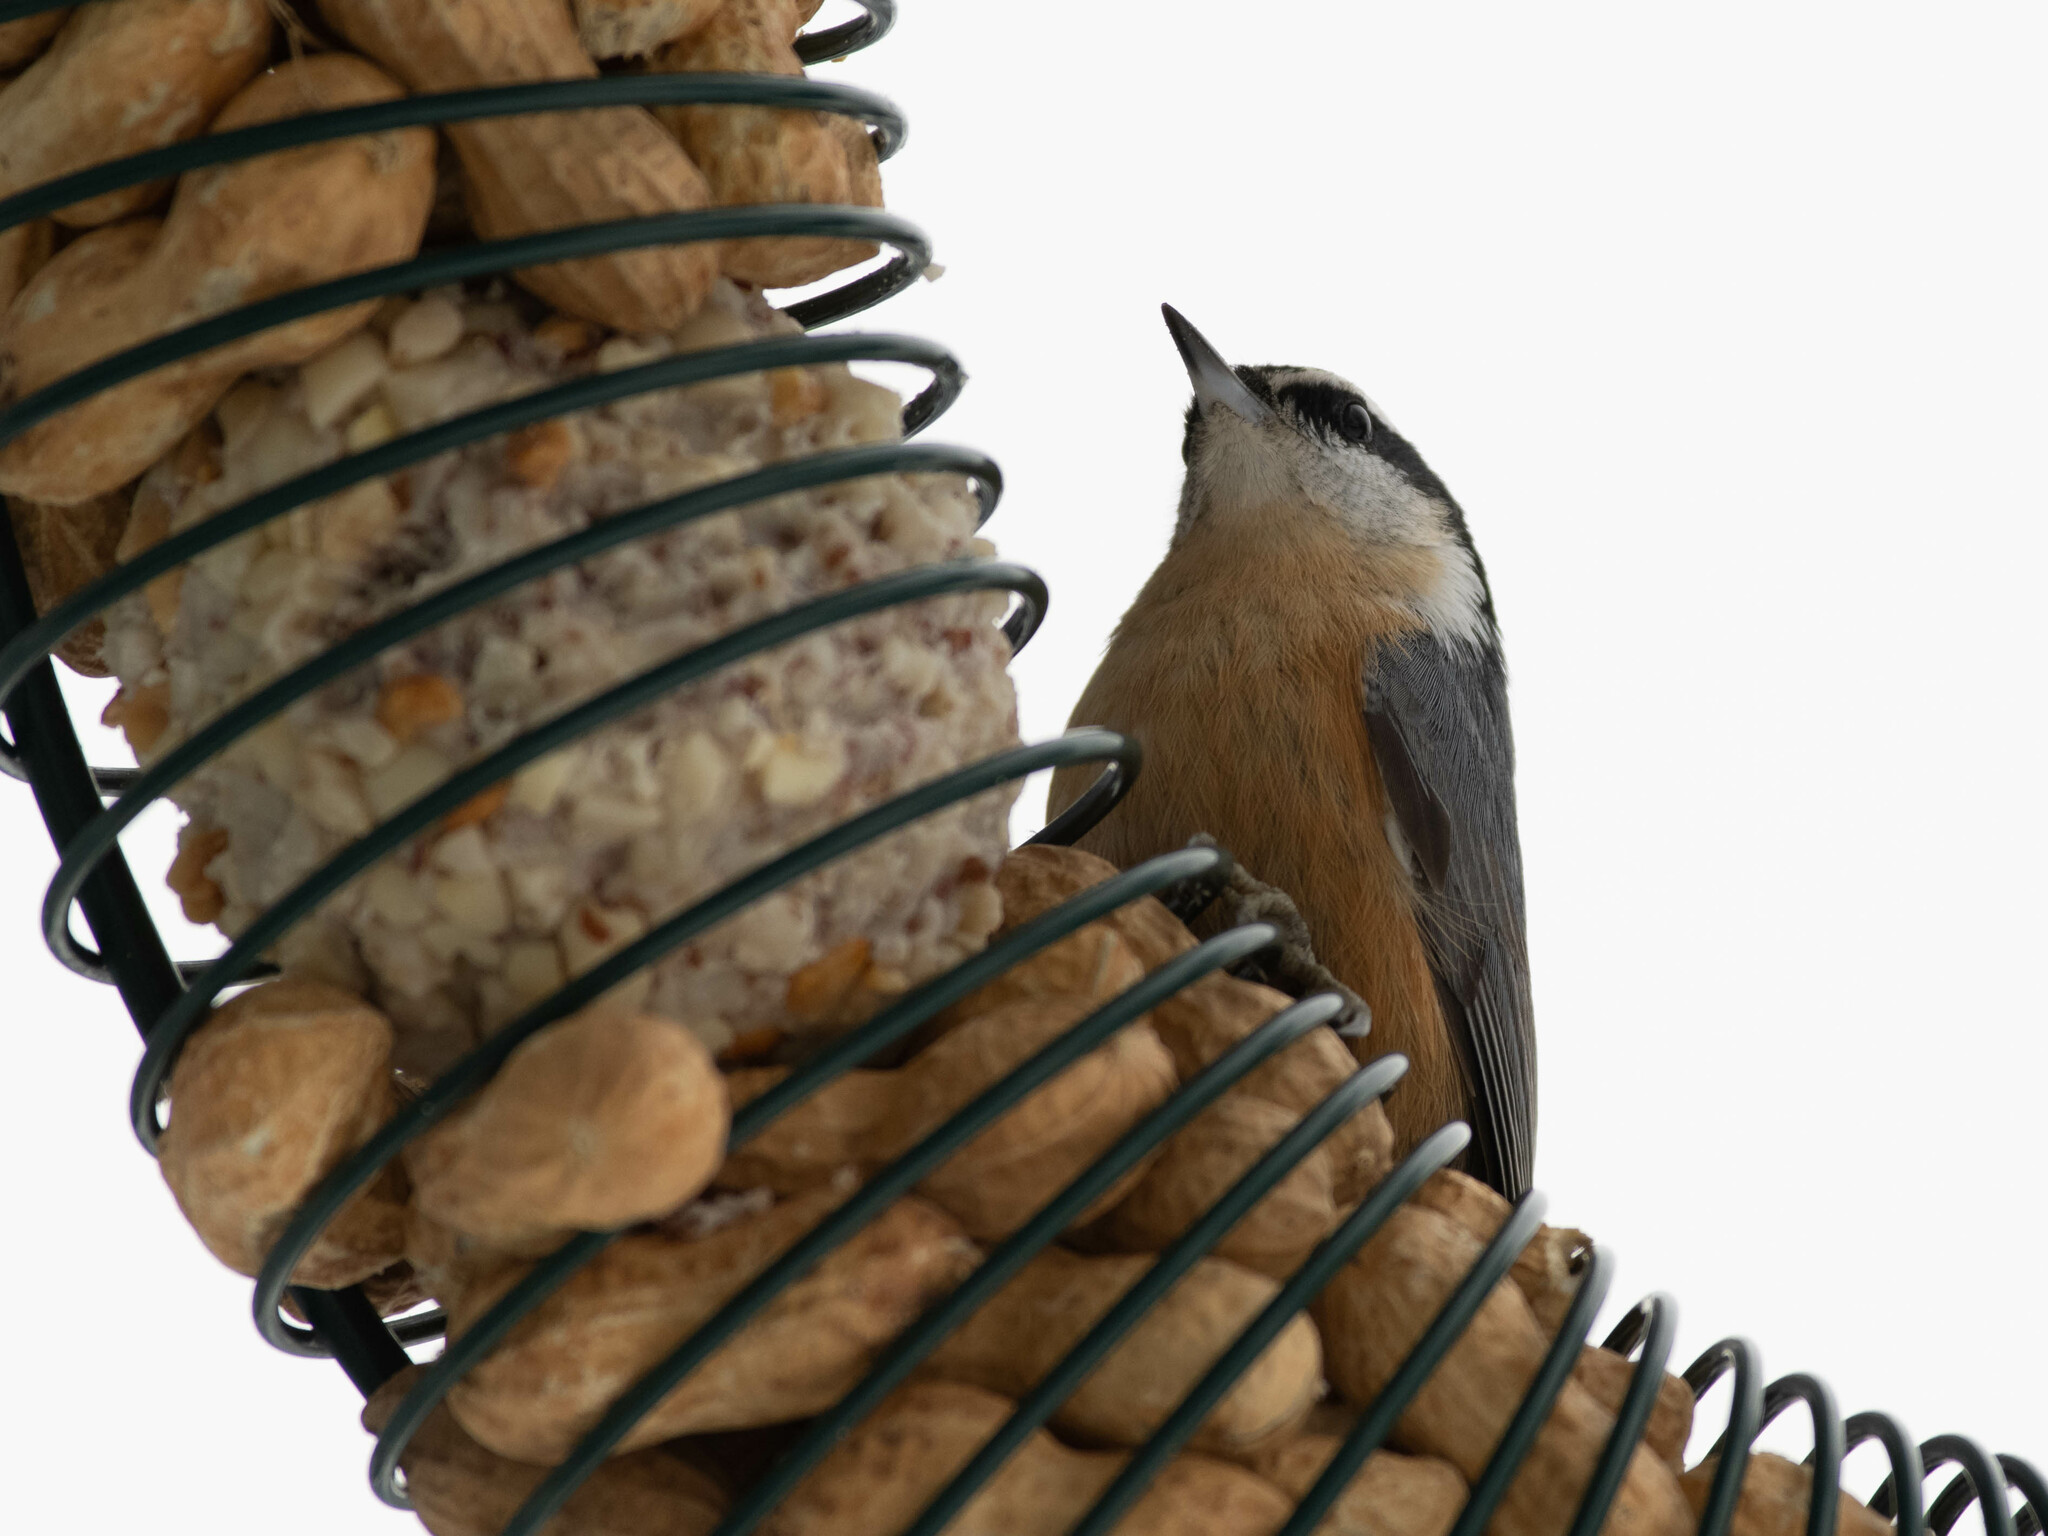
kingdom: Animalia
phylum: Chordata
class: Aves
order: Passeriformes
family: Sittidae
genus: Sitta
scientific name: Sitta canadensis
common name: Red-breasted nuthatch
